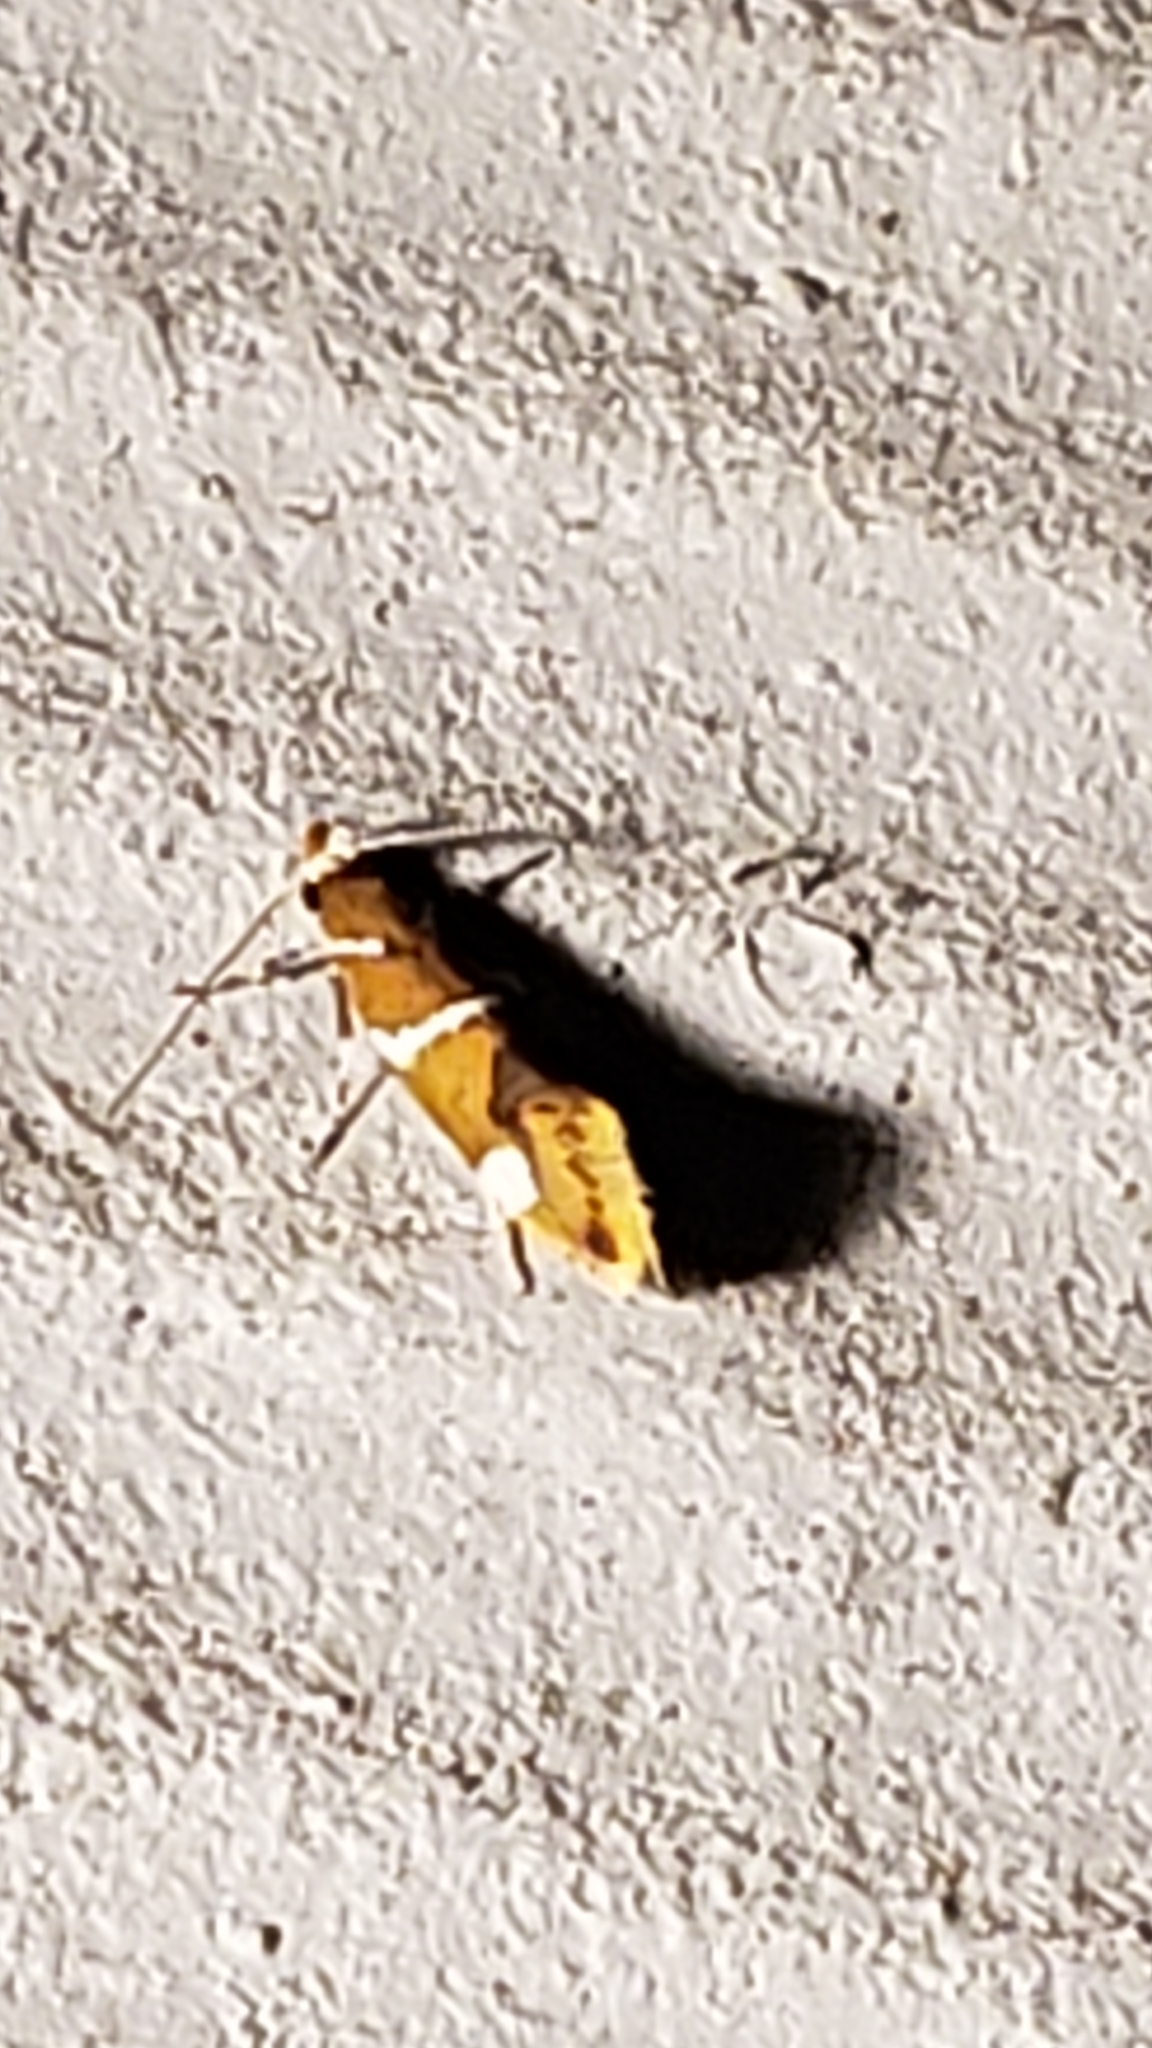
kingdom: Animalia
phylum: Arthropoda
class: Insecta
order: Lepidoptera
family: Oecophoridae
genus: Promalactis
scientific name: Promalactis suzukiella
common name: Moth
